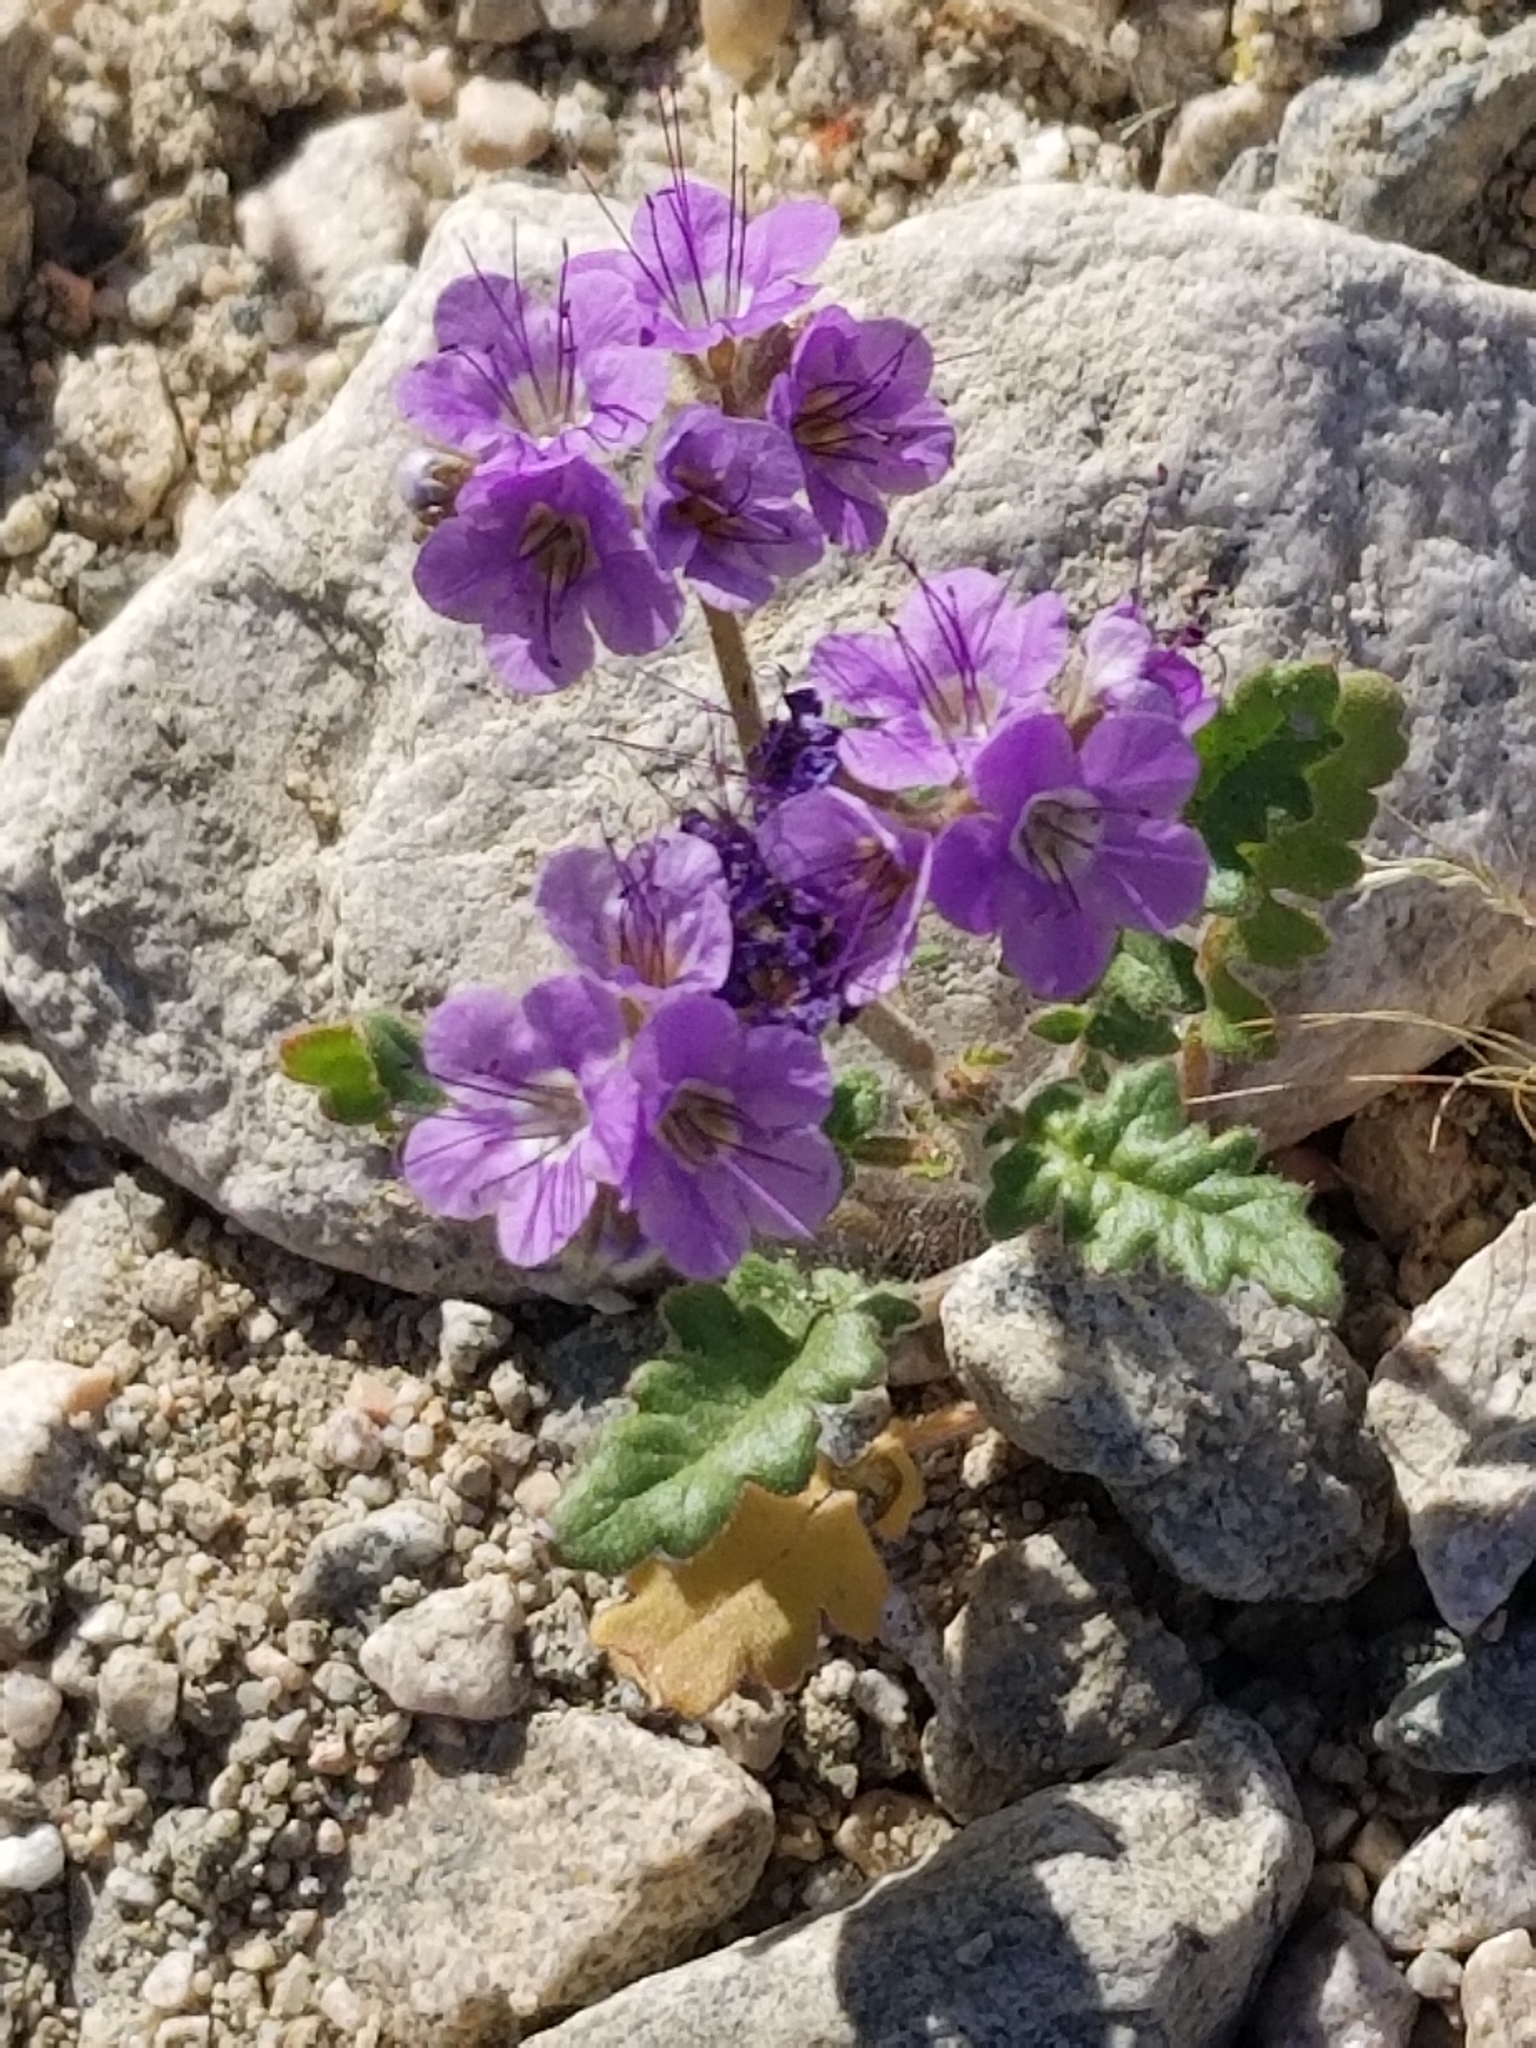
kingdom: Plantae
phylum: Tracheophyta
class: Magnoliopsida
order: Boraginales
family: Hydrophyllaceae
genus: Phacelia
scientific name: Phacelia crenulata
